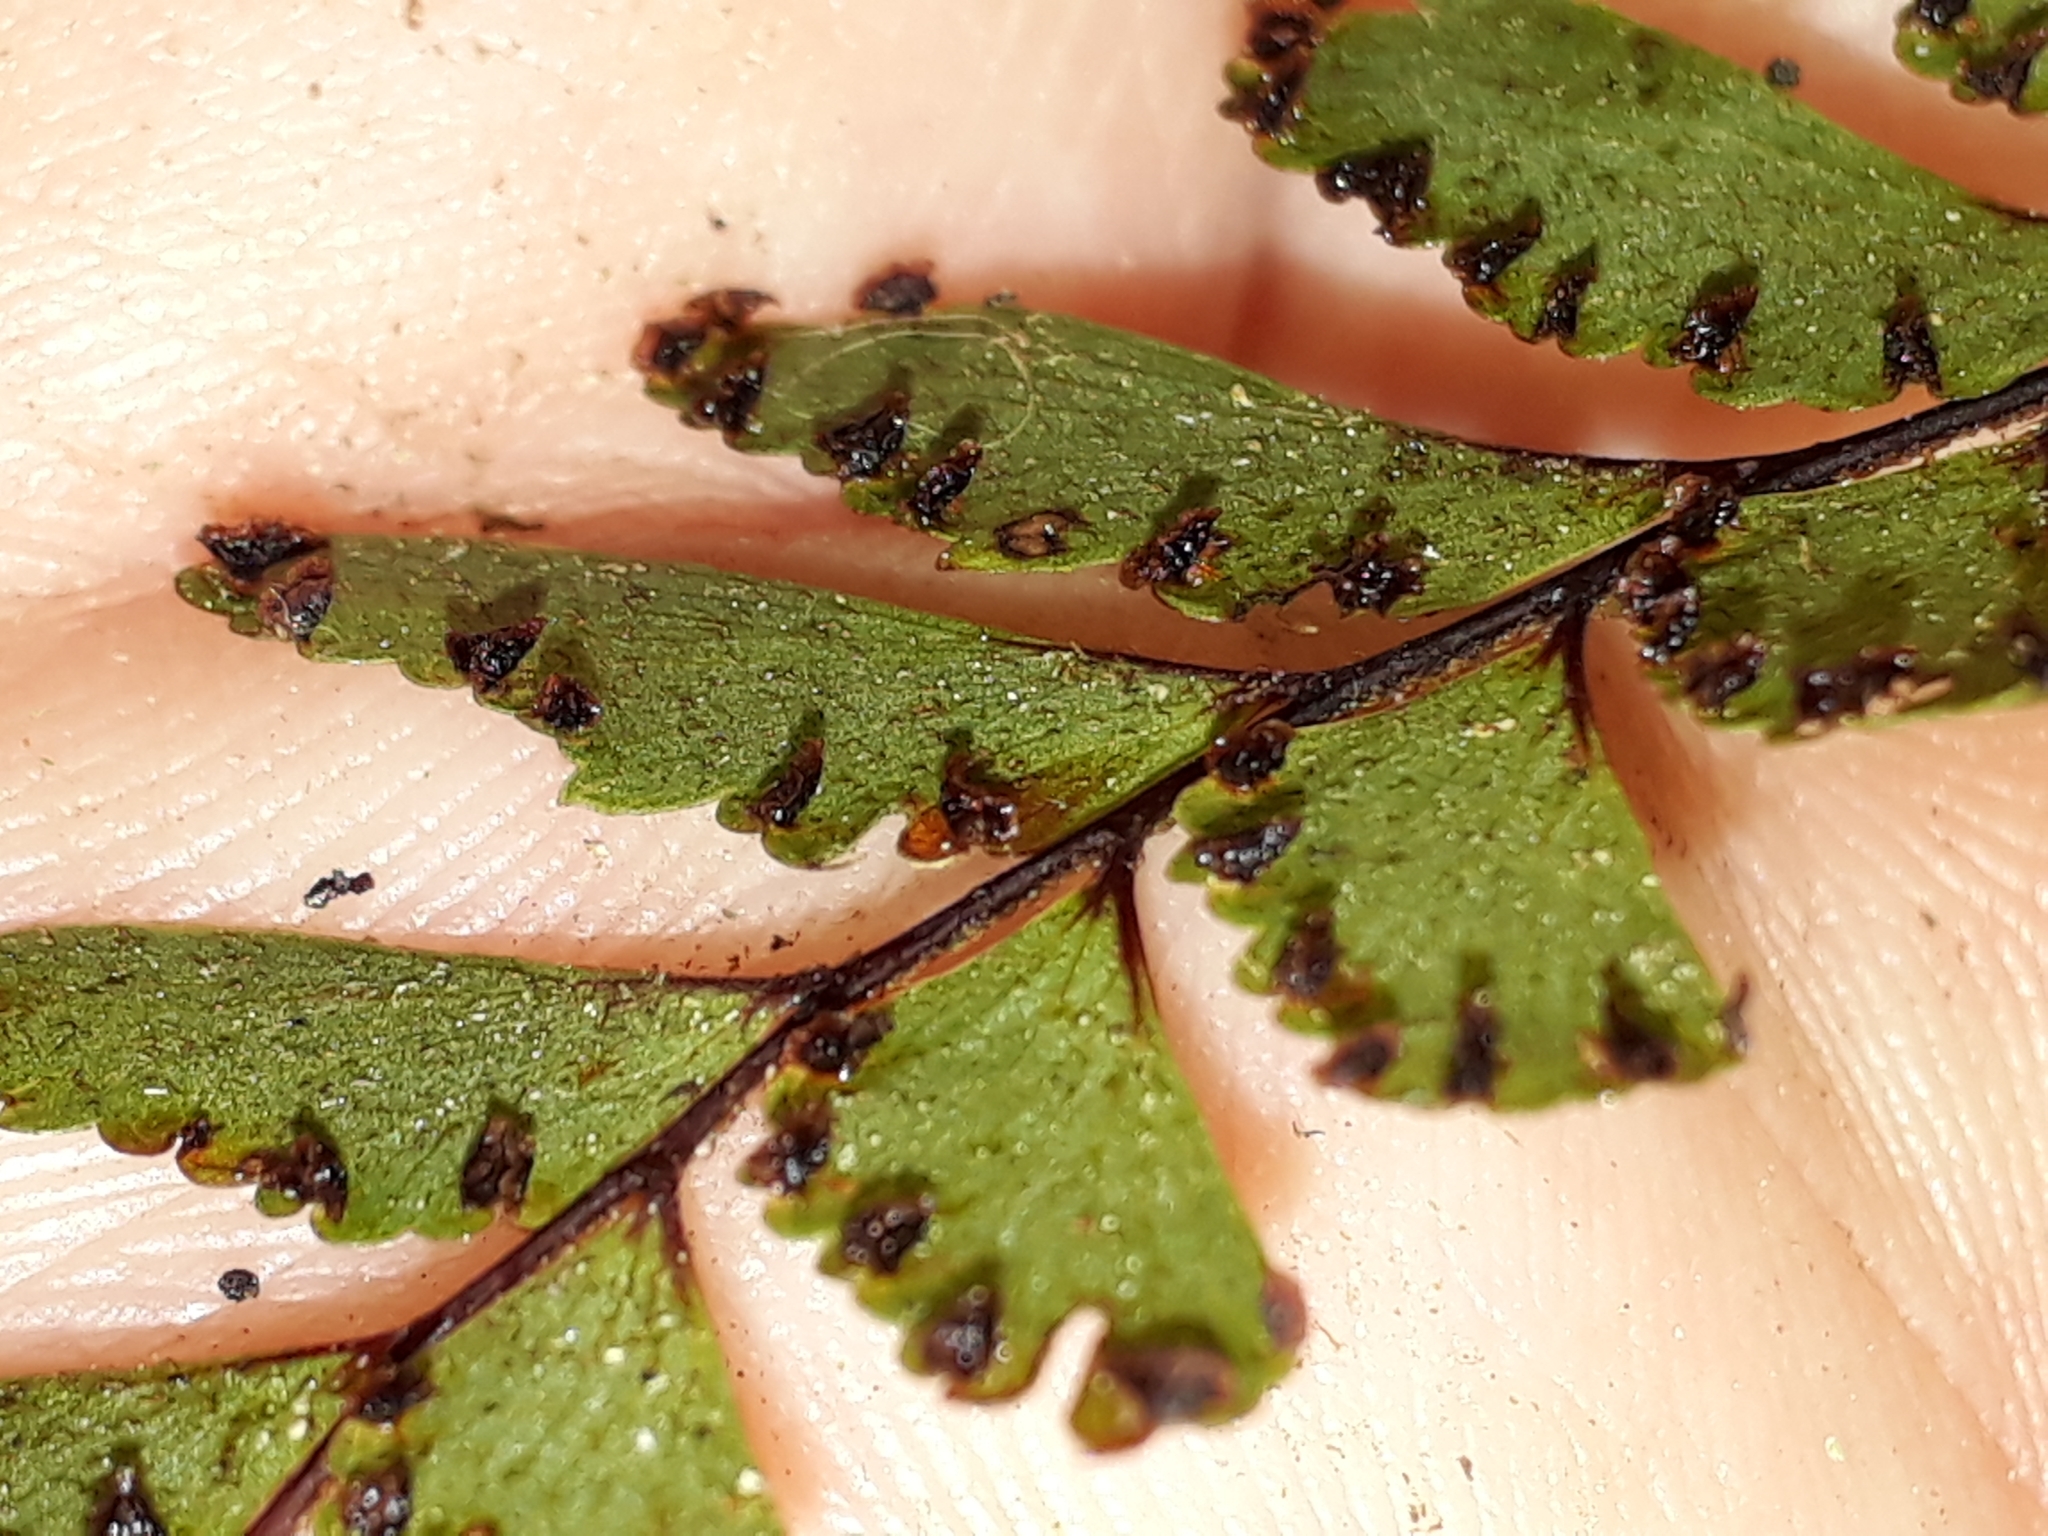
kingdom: Plantae
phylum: Tracheophyta
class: Polypodiopsida
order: Polypodiales
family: Pteridaceae
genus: Adiantum
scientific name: Adiantum fulvum
